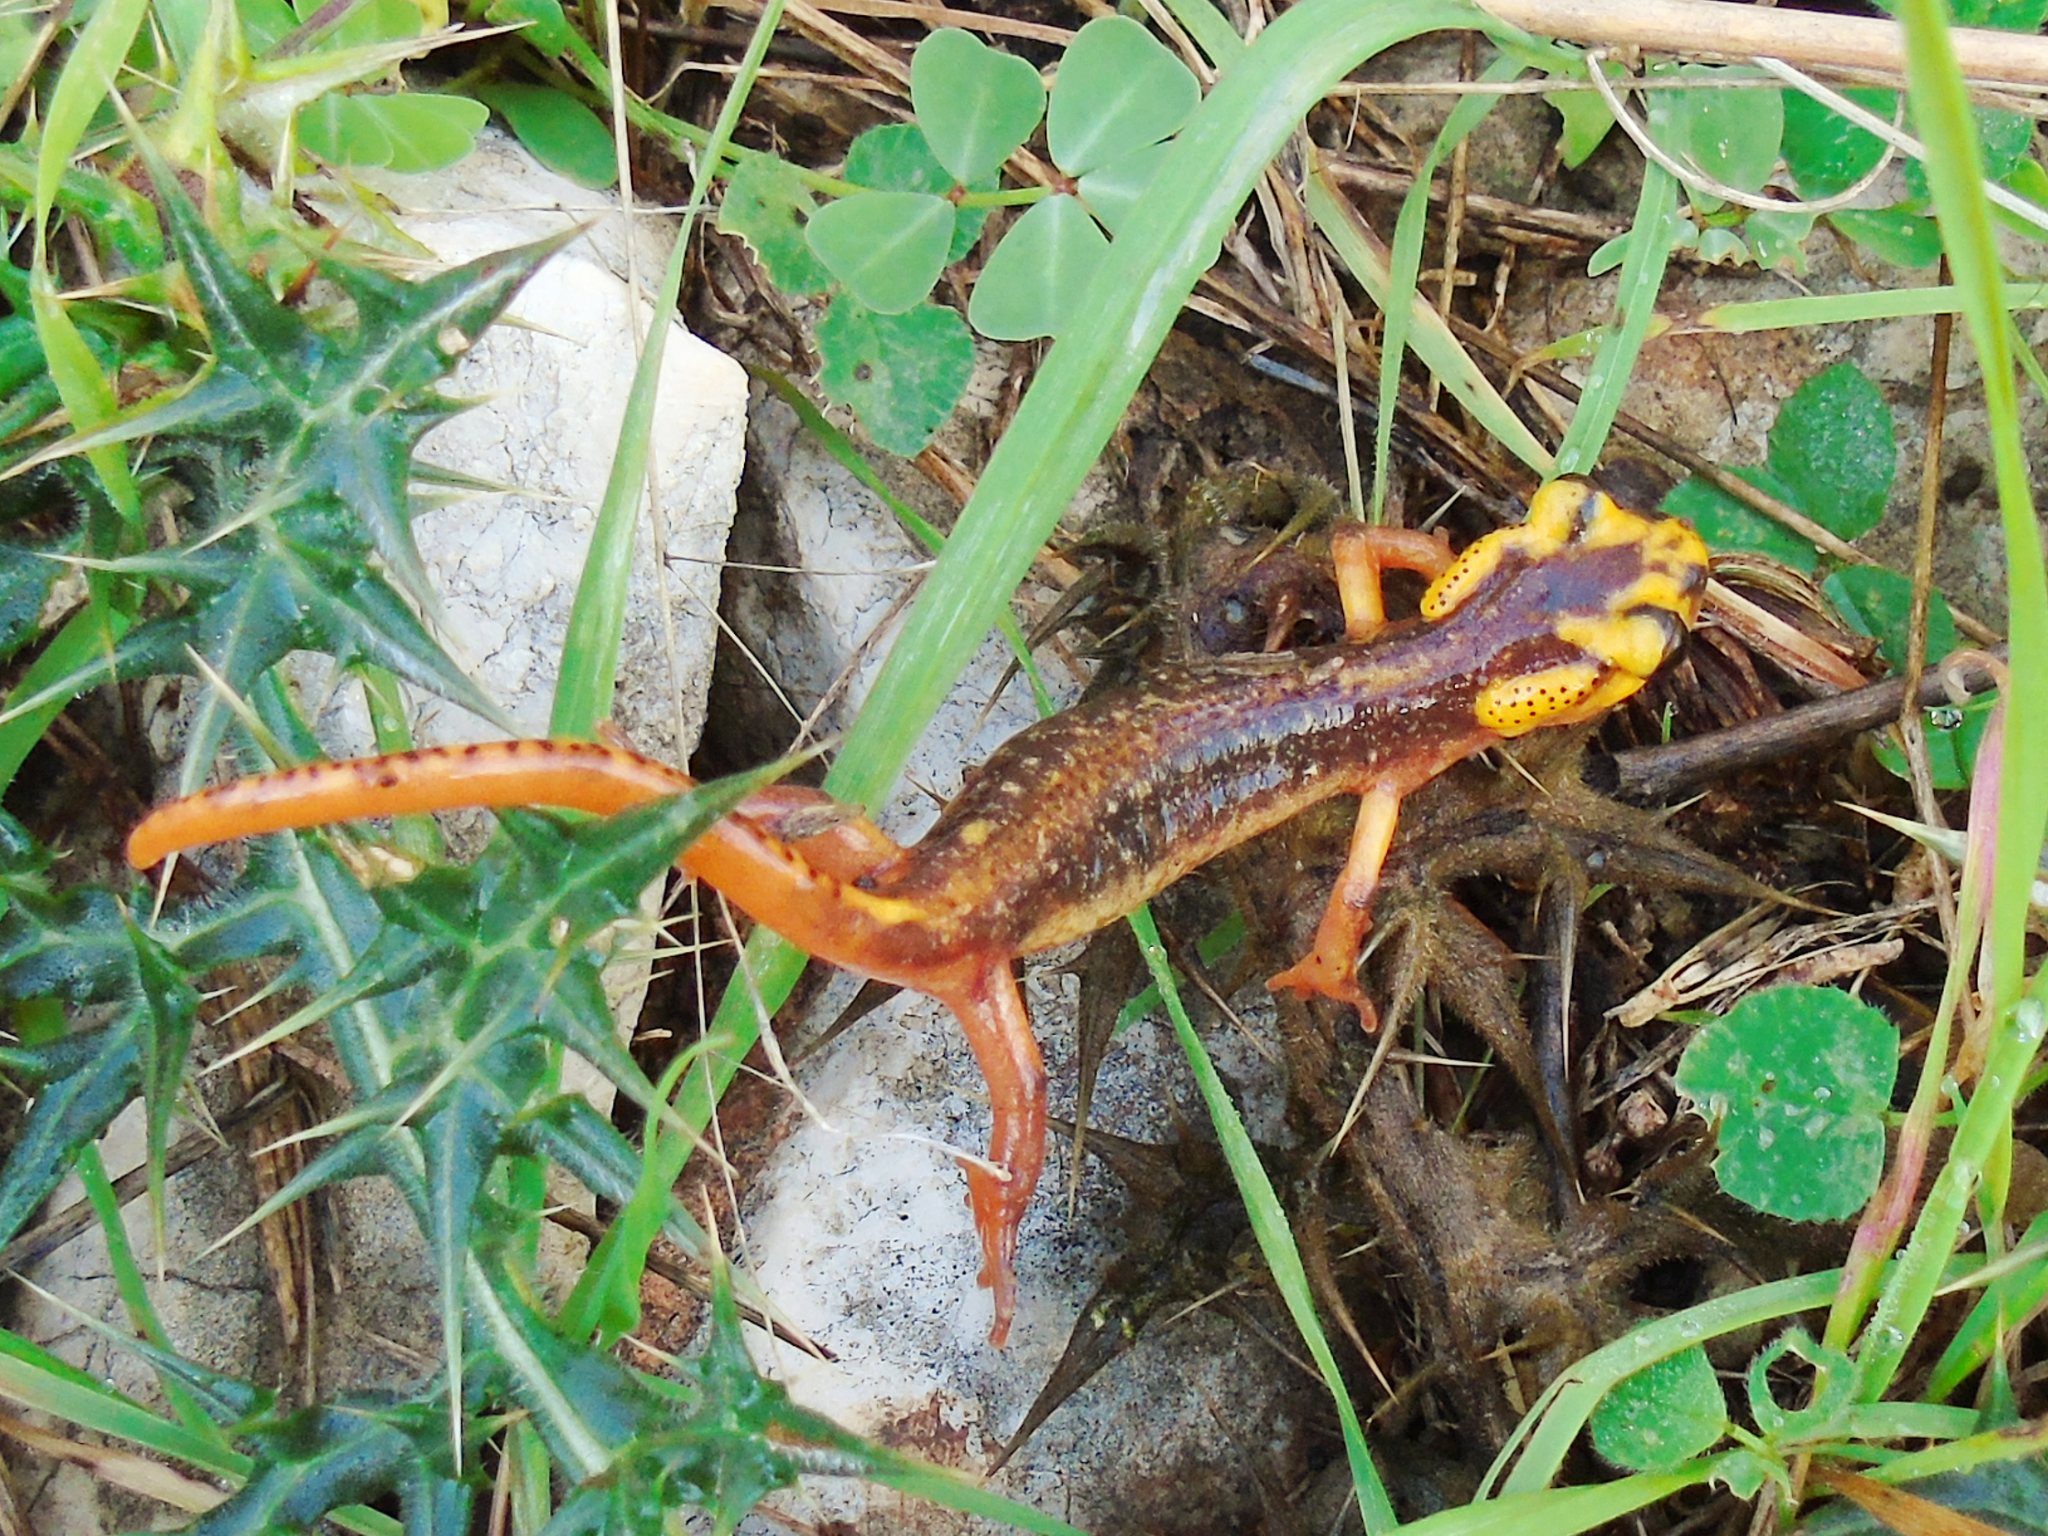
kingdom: Animalia
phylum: Chordata
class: Amphibia
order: Caudata
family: Salamandridae
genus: Lyciasalamandra
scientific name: Lyciasalamandra antalyana
